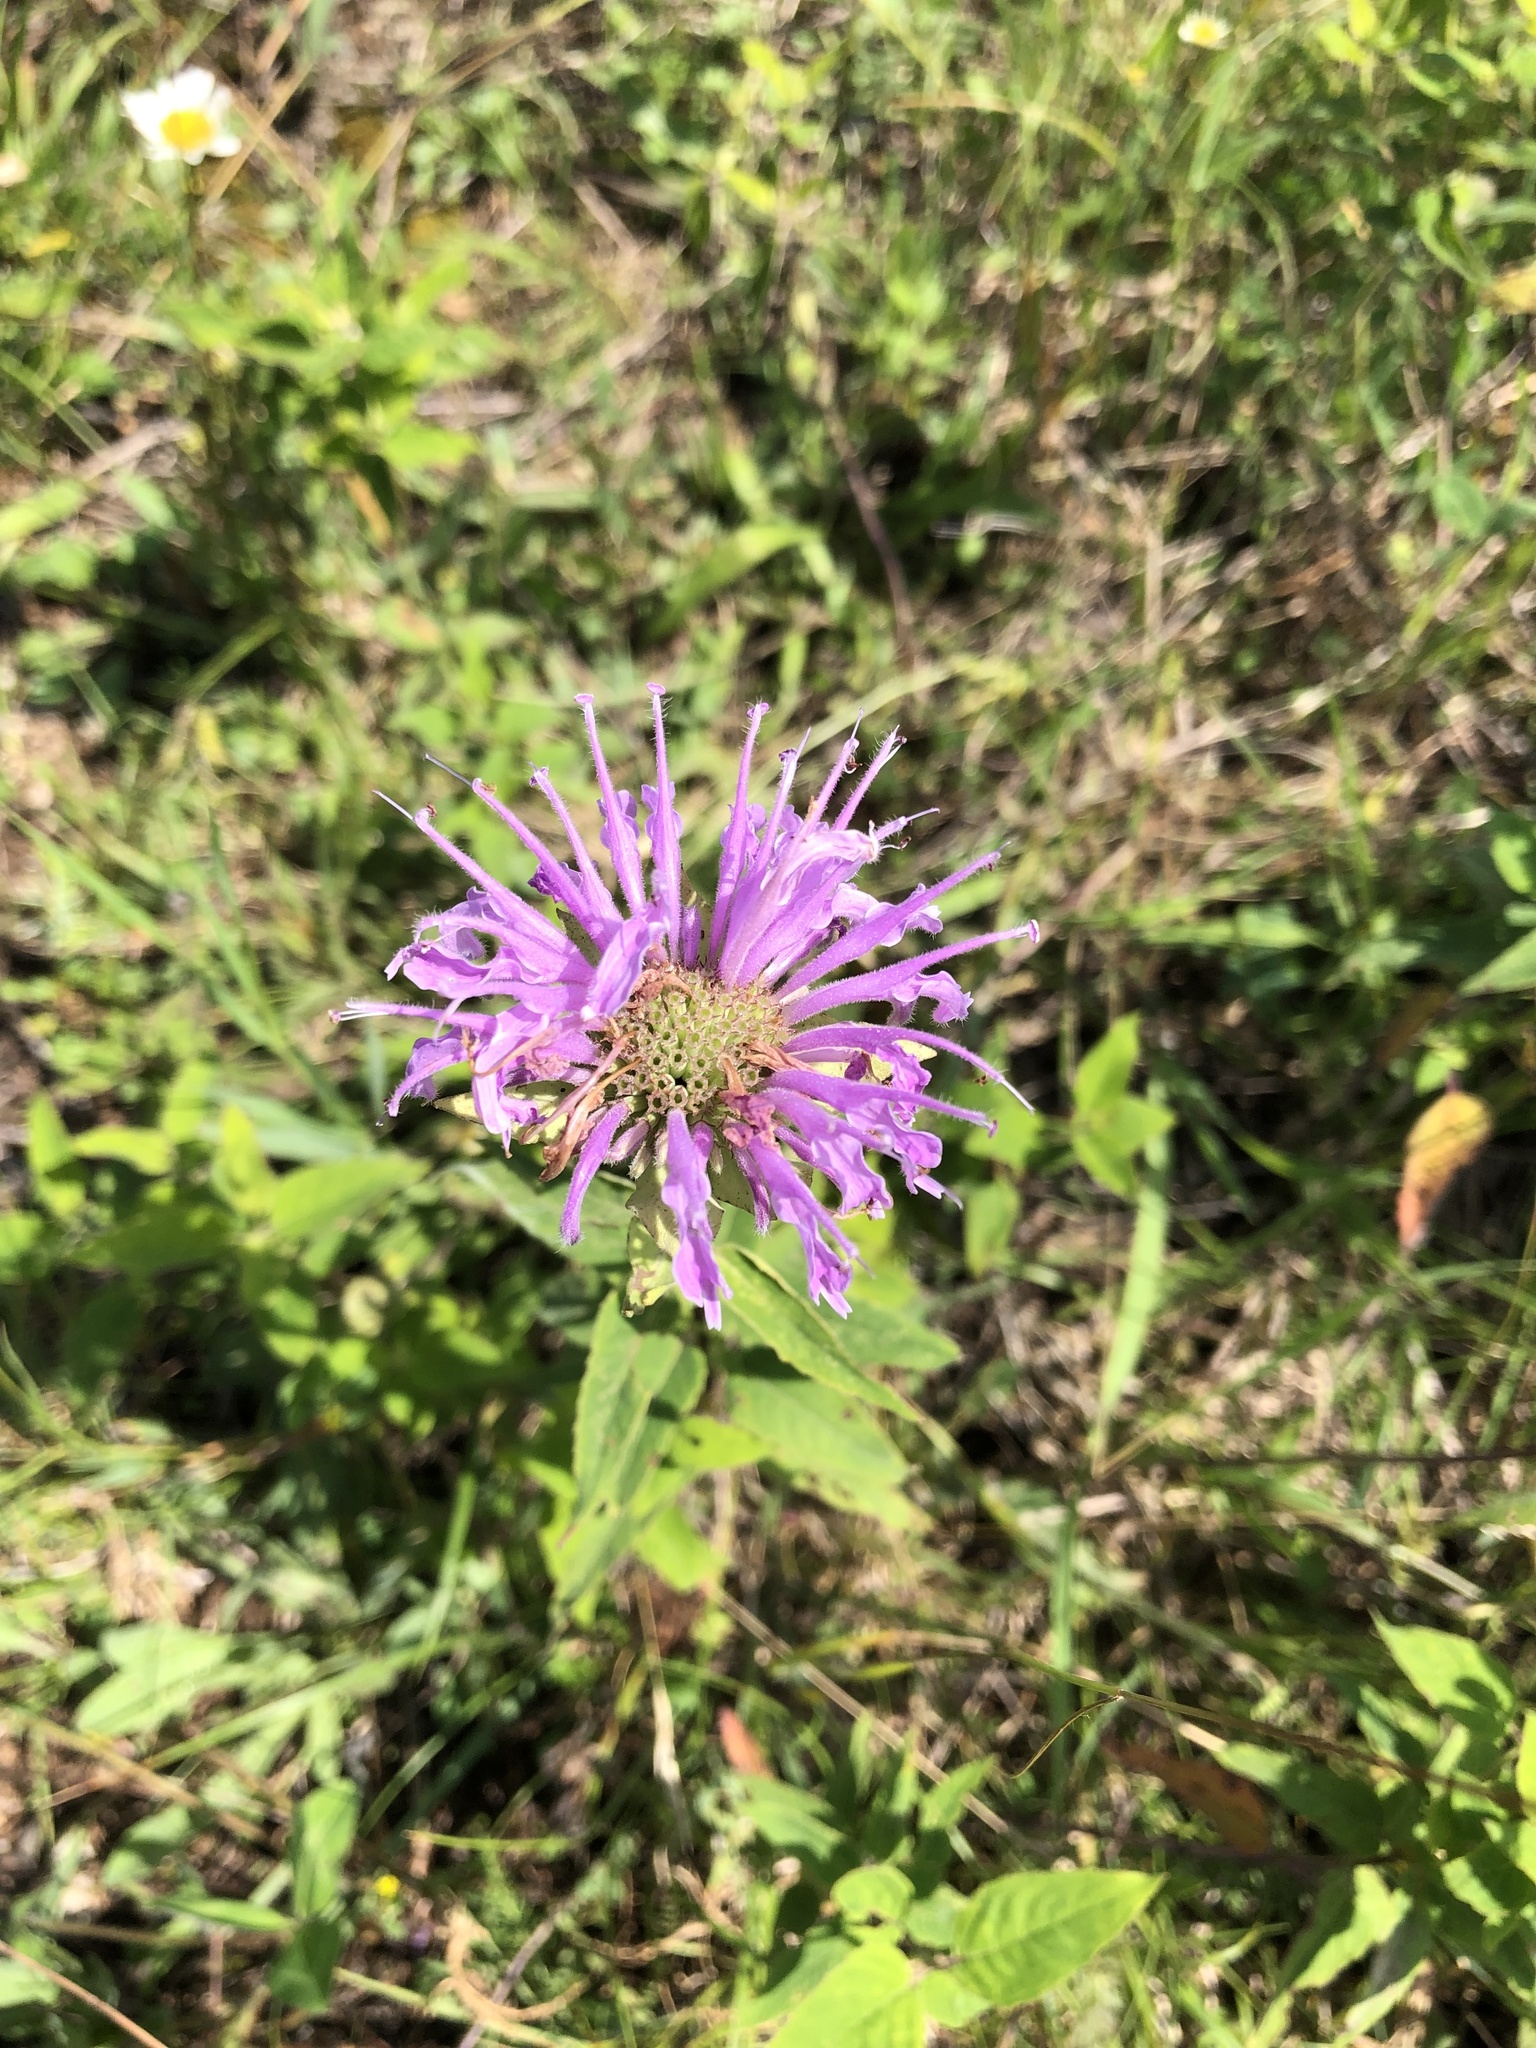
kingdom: Plantae
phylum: Tracheophyta
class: Magnoliopsida
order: Lamiales
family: Lamiaceae
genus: Monarda
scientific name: Monarda fistulosa
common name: Purple beebalm
